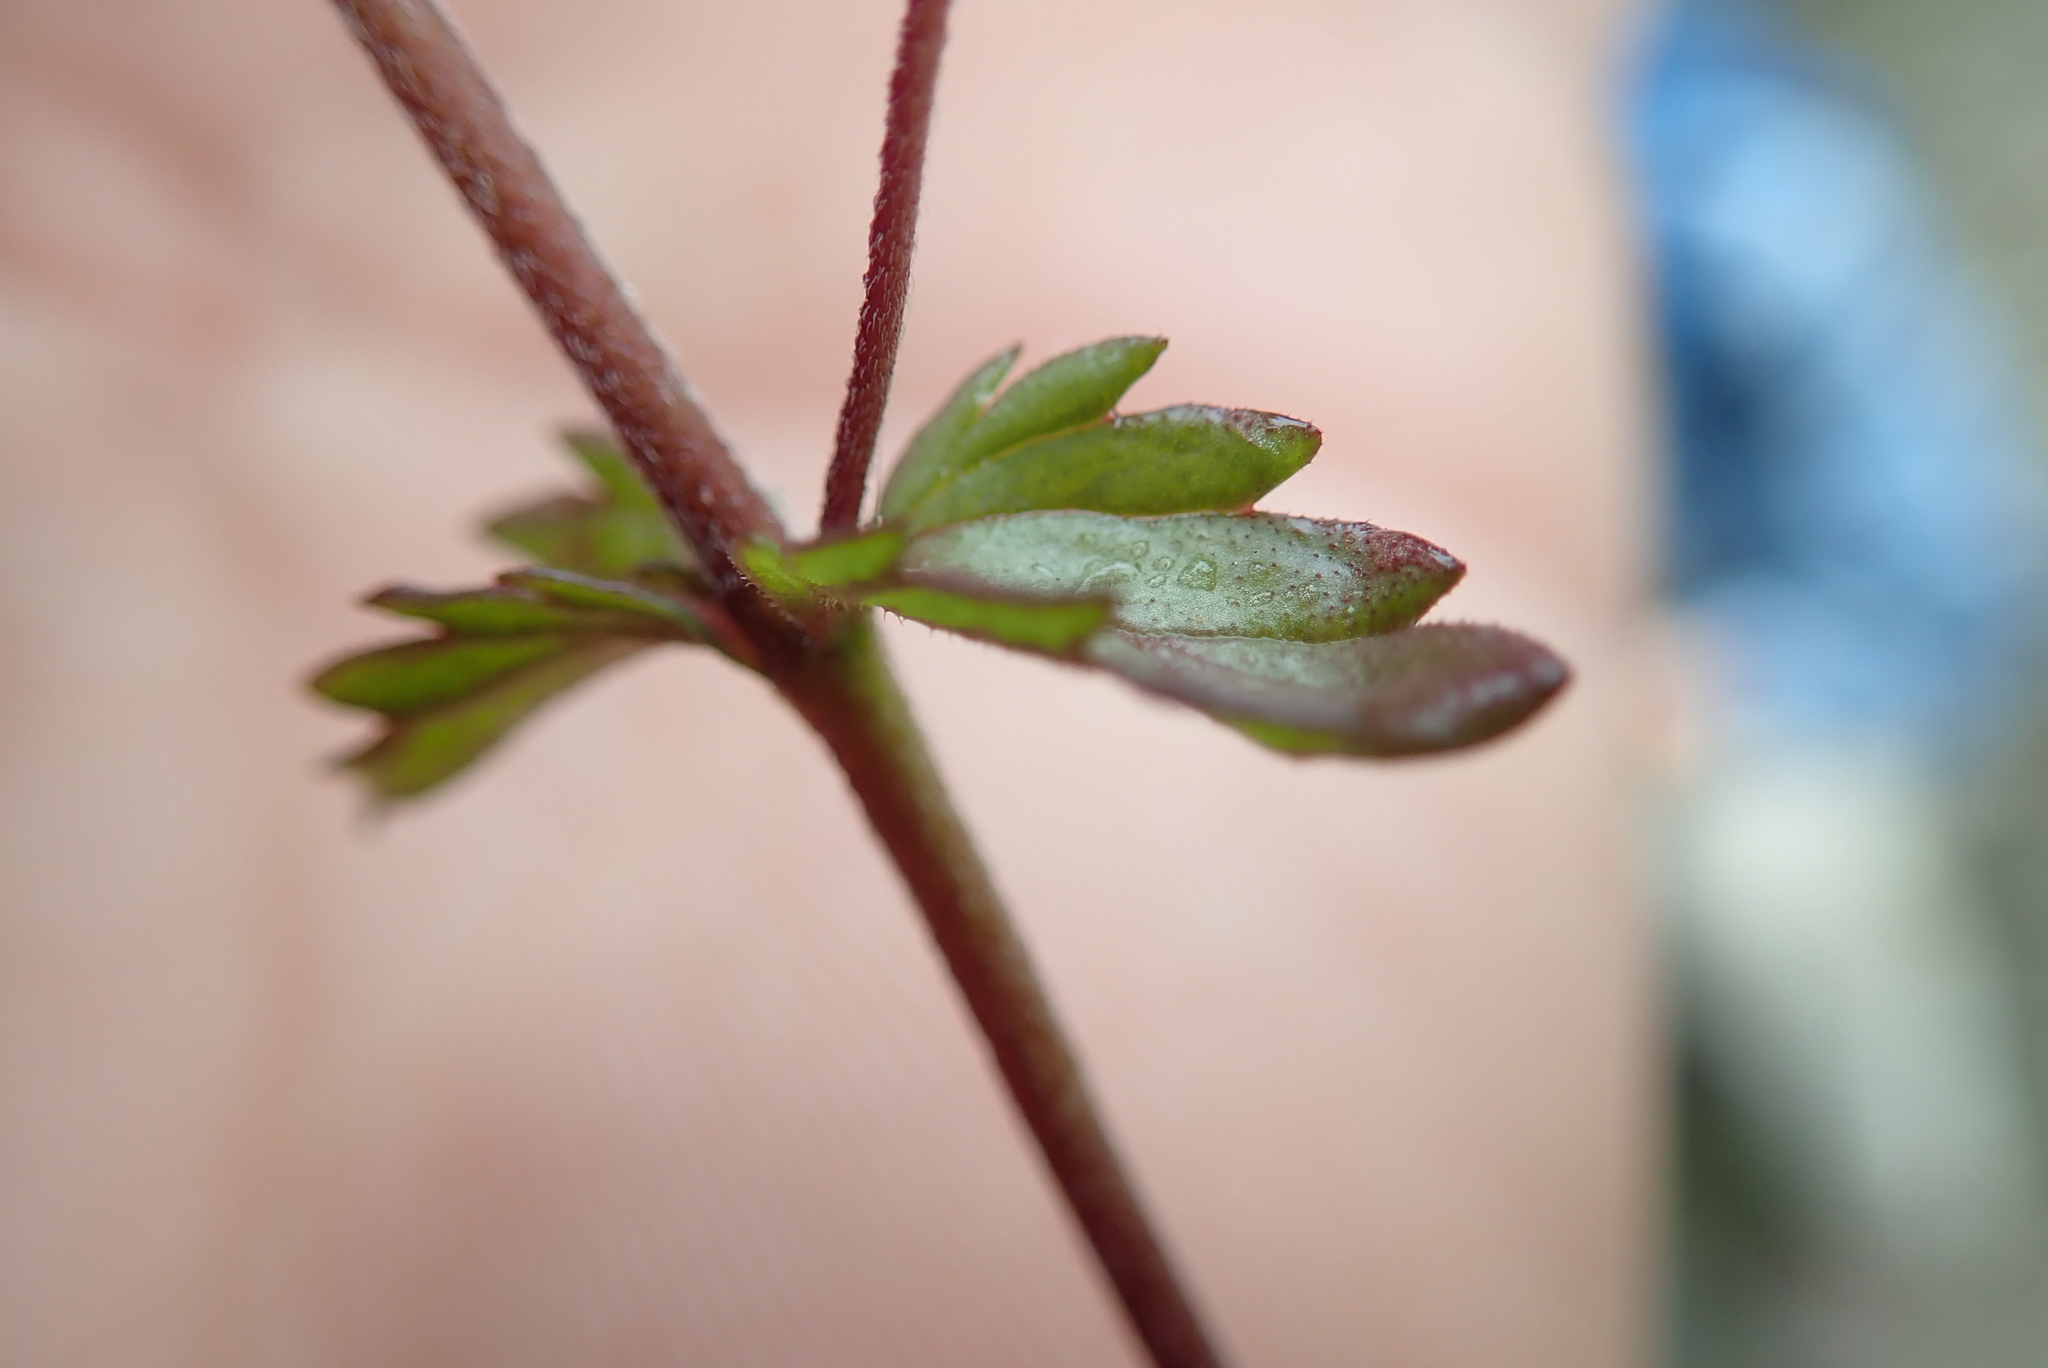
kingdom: Plantae
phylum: Tracheophyta
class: Magnoliopsida
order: Lamiales
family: Orobanchaceae
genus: Euphrasia
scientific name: Euphrasia nemorosa
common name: Common eyebright
